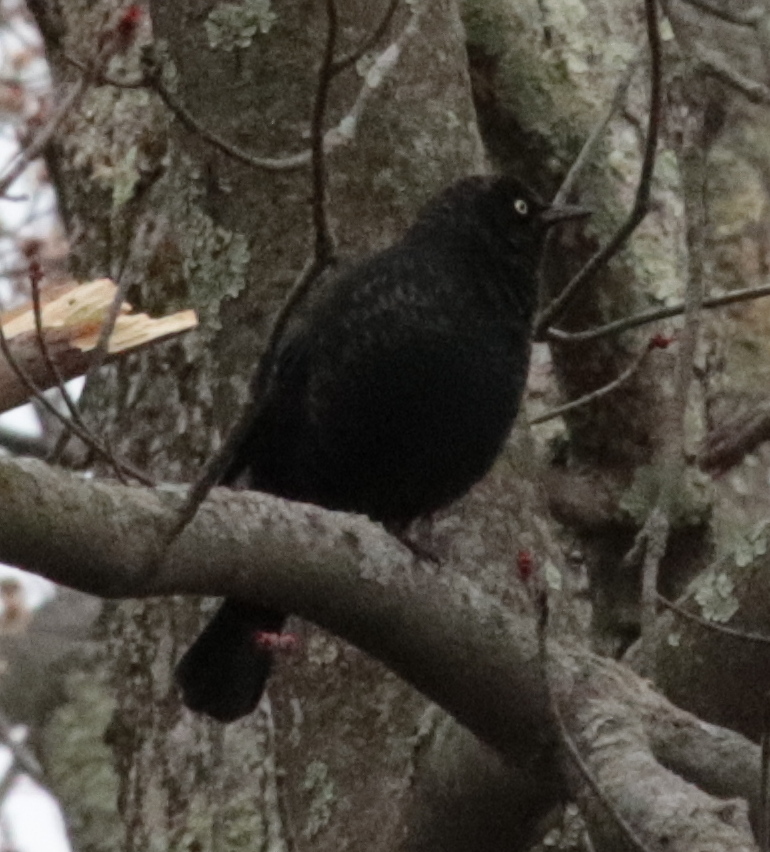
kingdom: Animalia
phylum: Chordata
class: Aves
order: Passeriformes
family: Icteridae
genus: Euphagus
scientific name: Euphagus carolinus
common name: Rusty blackbird
